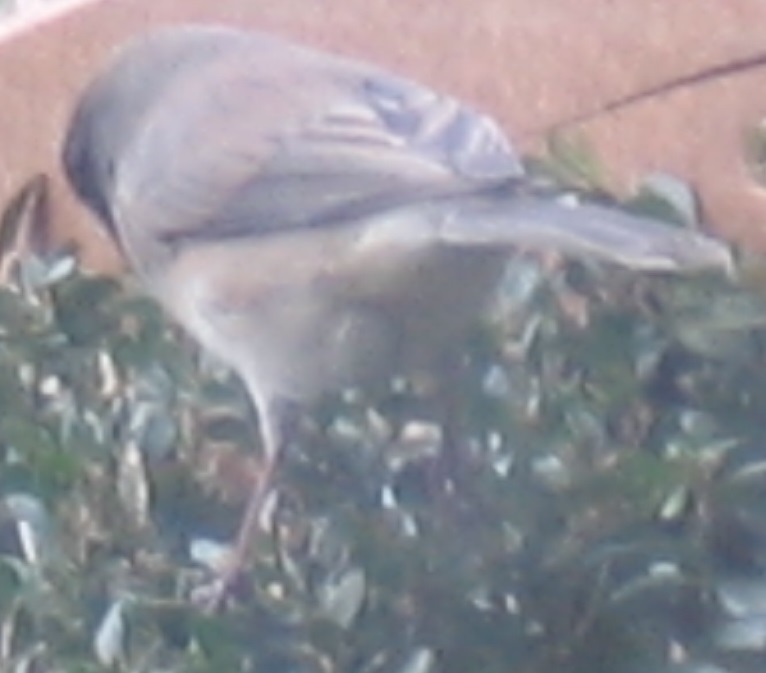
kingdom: Animalia
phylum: Chordata
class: Aves
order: Passeriformes
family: Passerellidae
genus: Junco
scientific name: Junco hyemalis
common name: Dark-eyed junco
